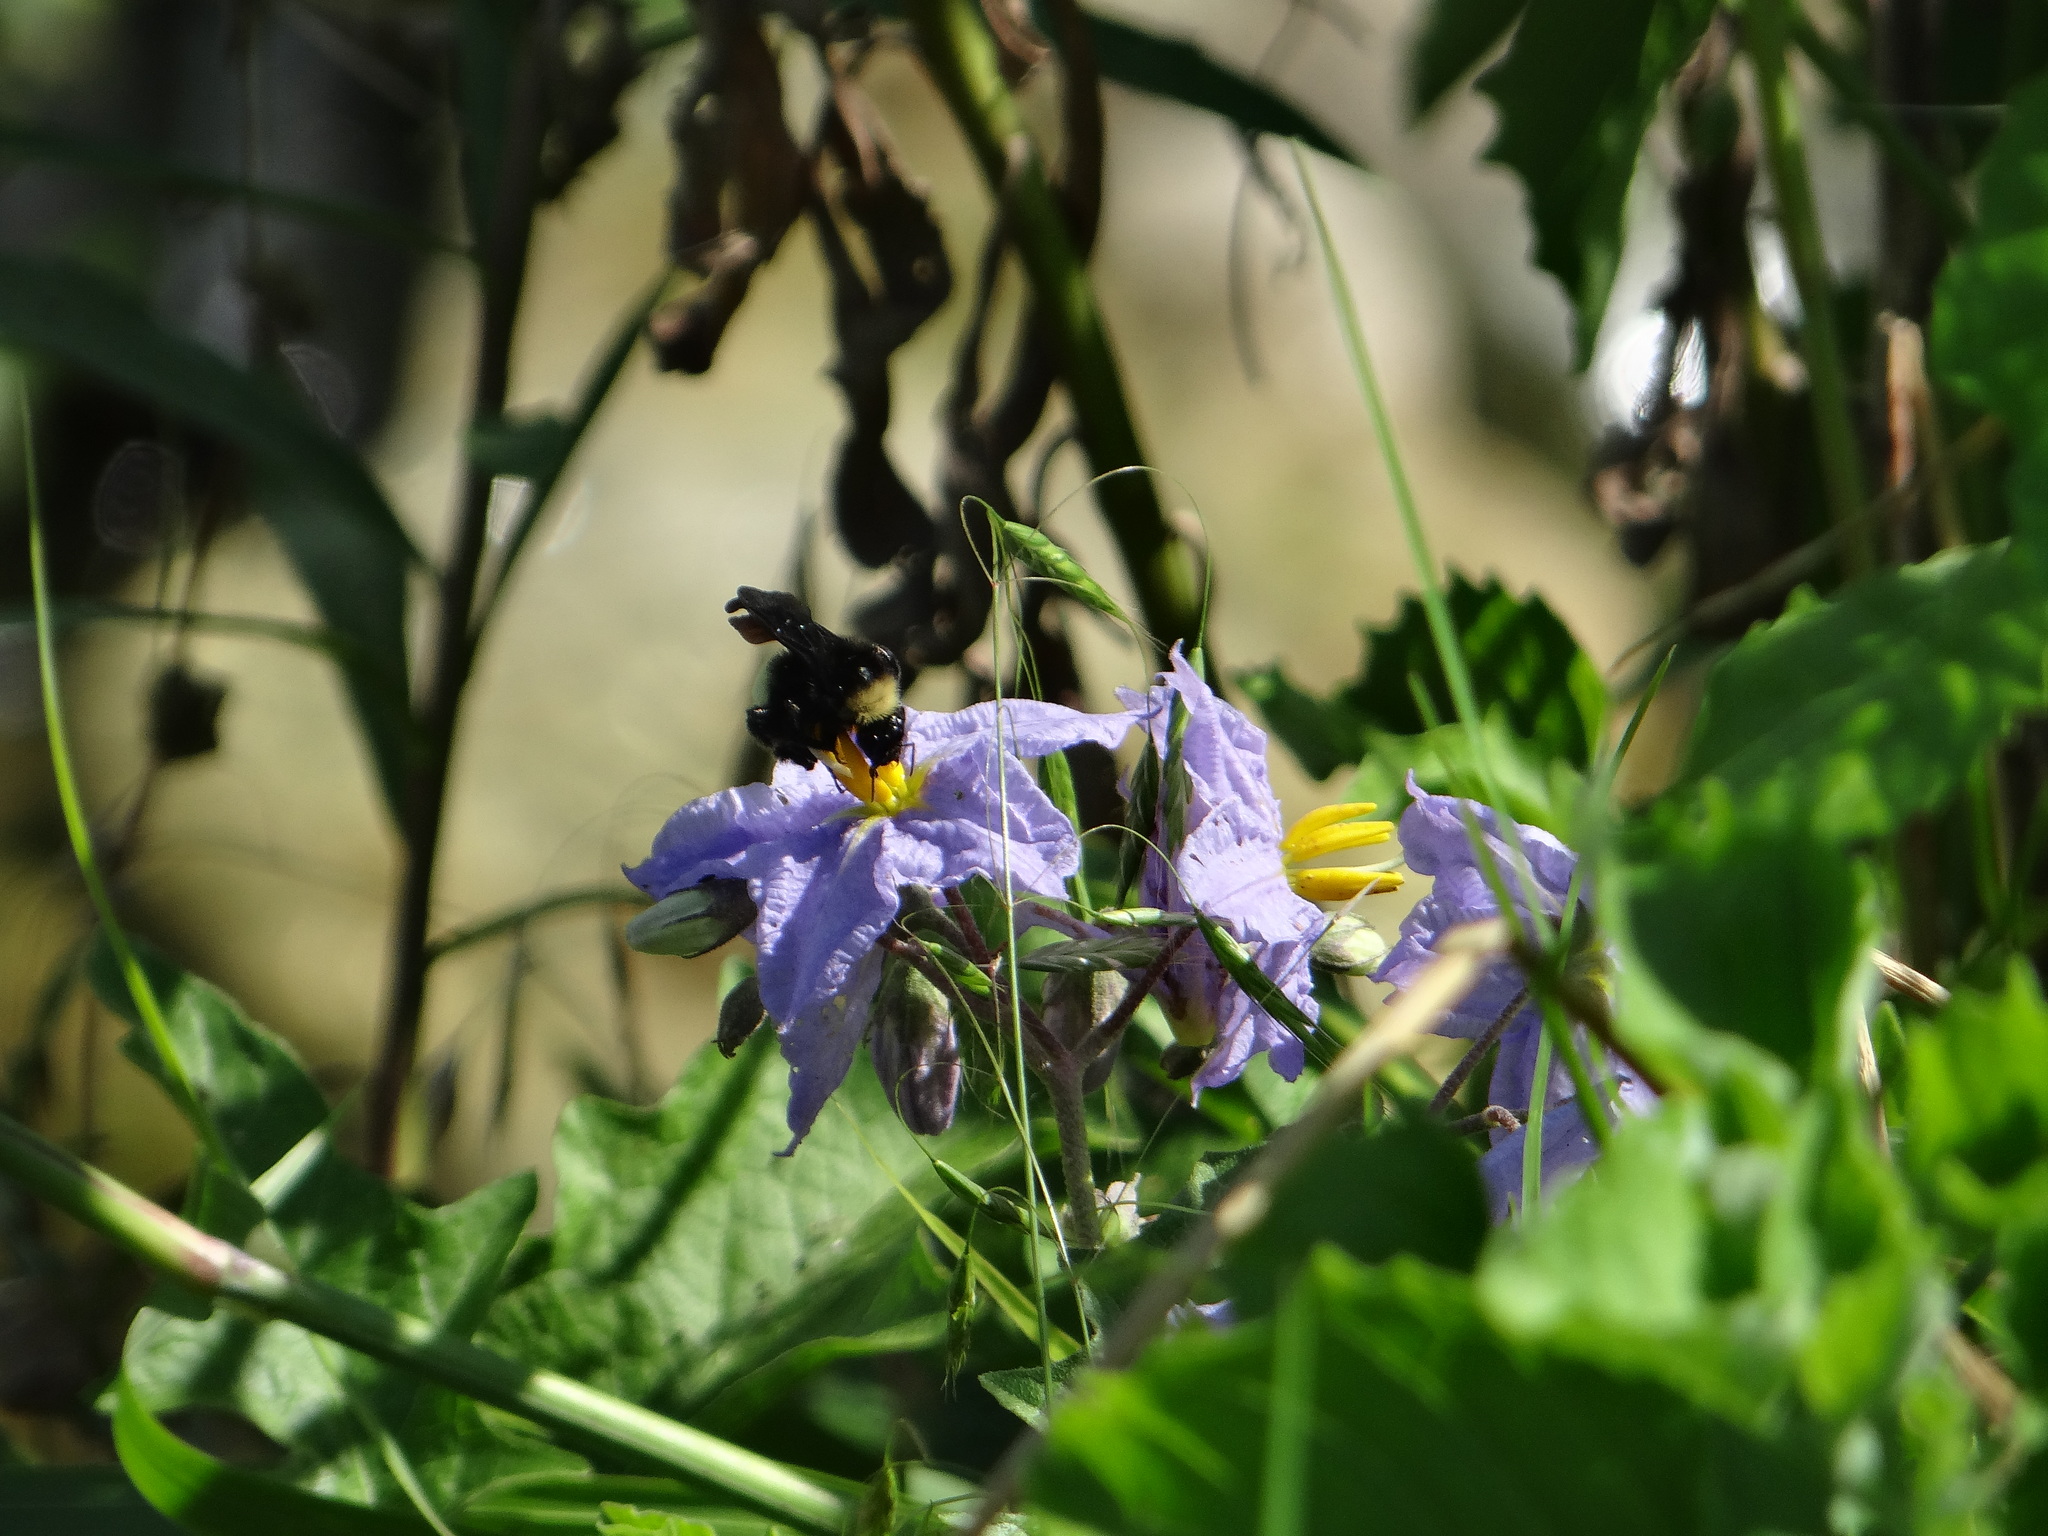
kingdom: Plantae
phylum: Tracheophyta
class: Magnoliopsida
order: Solanales
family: Solanaceae
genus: Solanum
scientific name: Solanum dimidiatum
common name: Carolina horse-nettle
